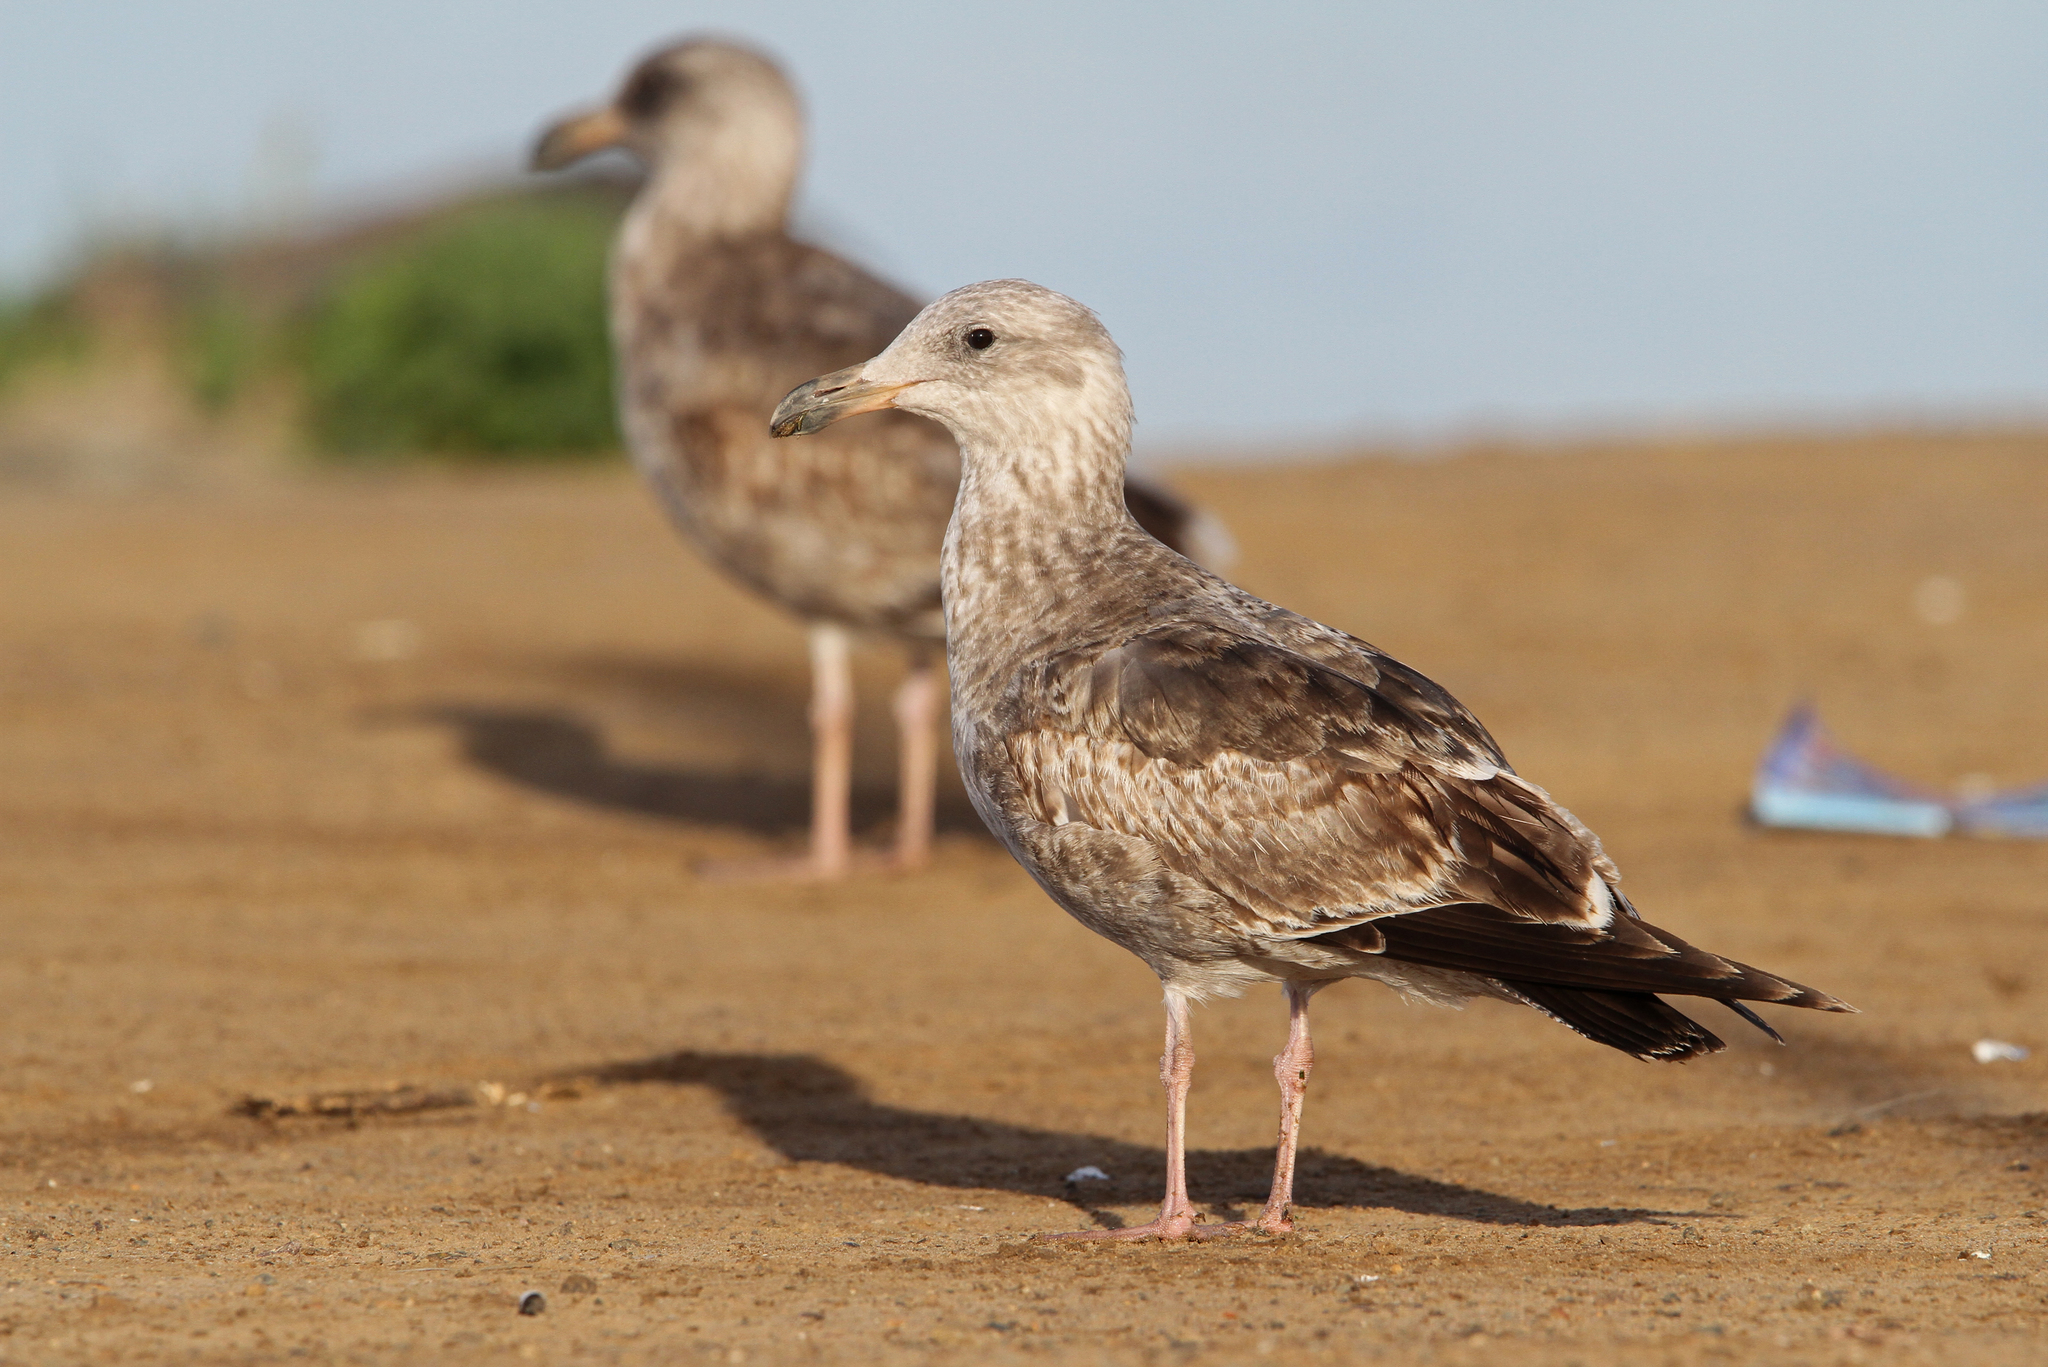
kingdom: Animalia
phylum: Chordata
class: Aves
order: Charadriiformes
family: Laridae
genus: Larus
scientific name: Larus occidentalis
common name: Western gull
